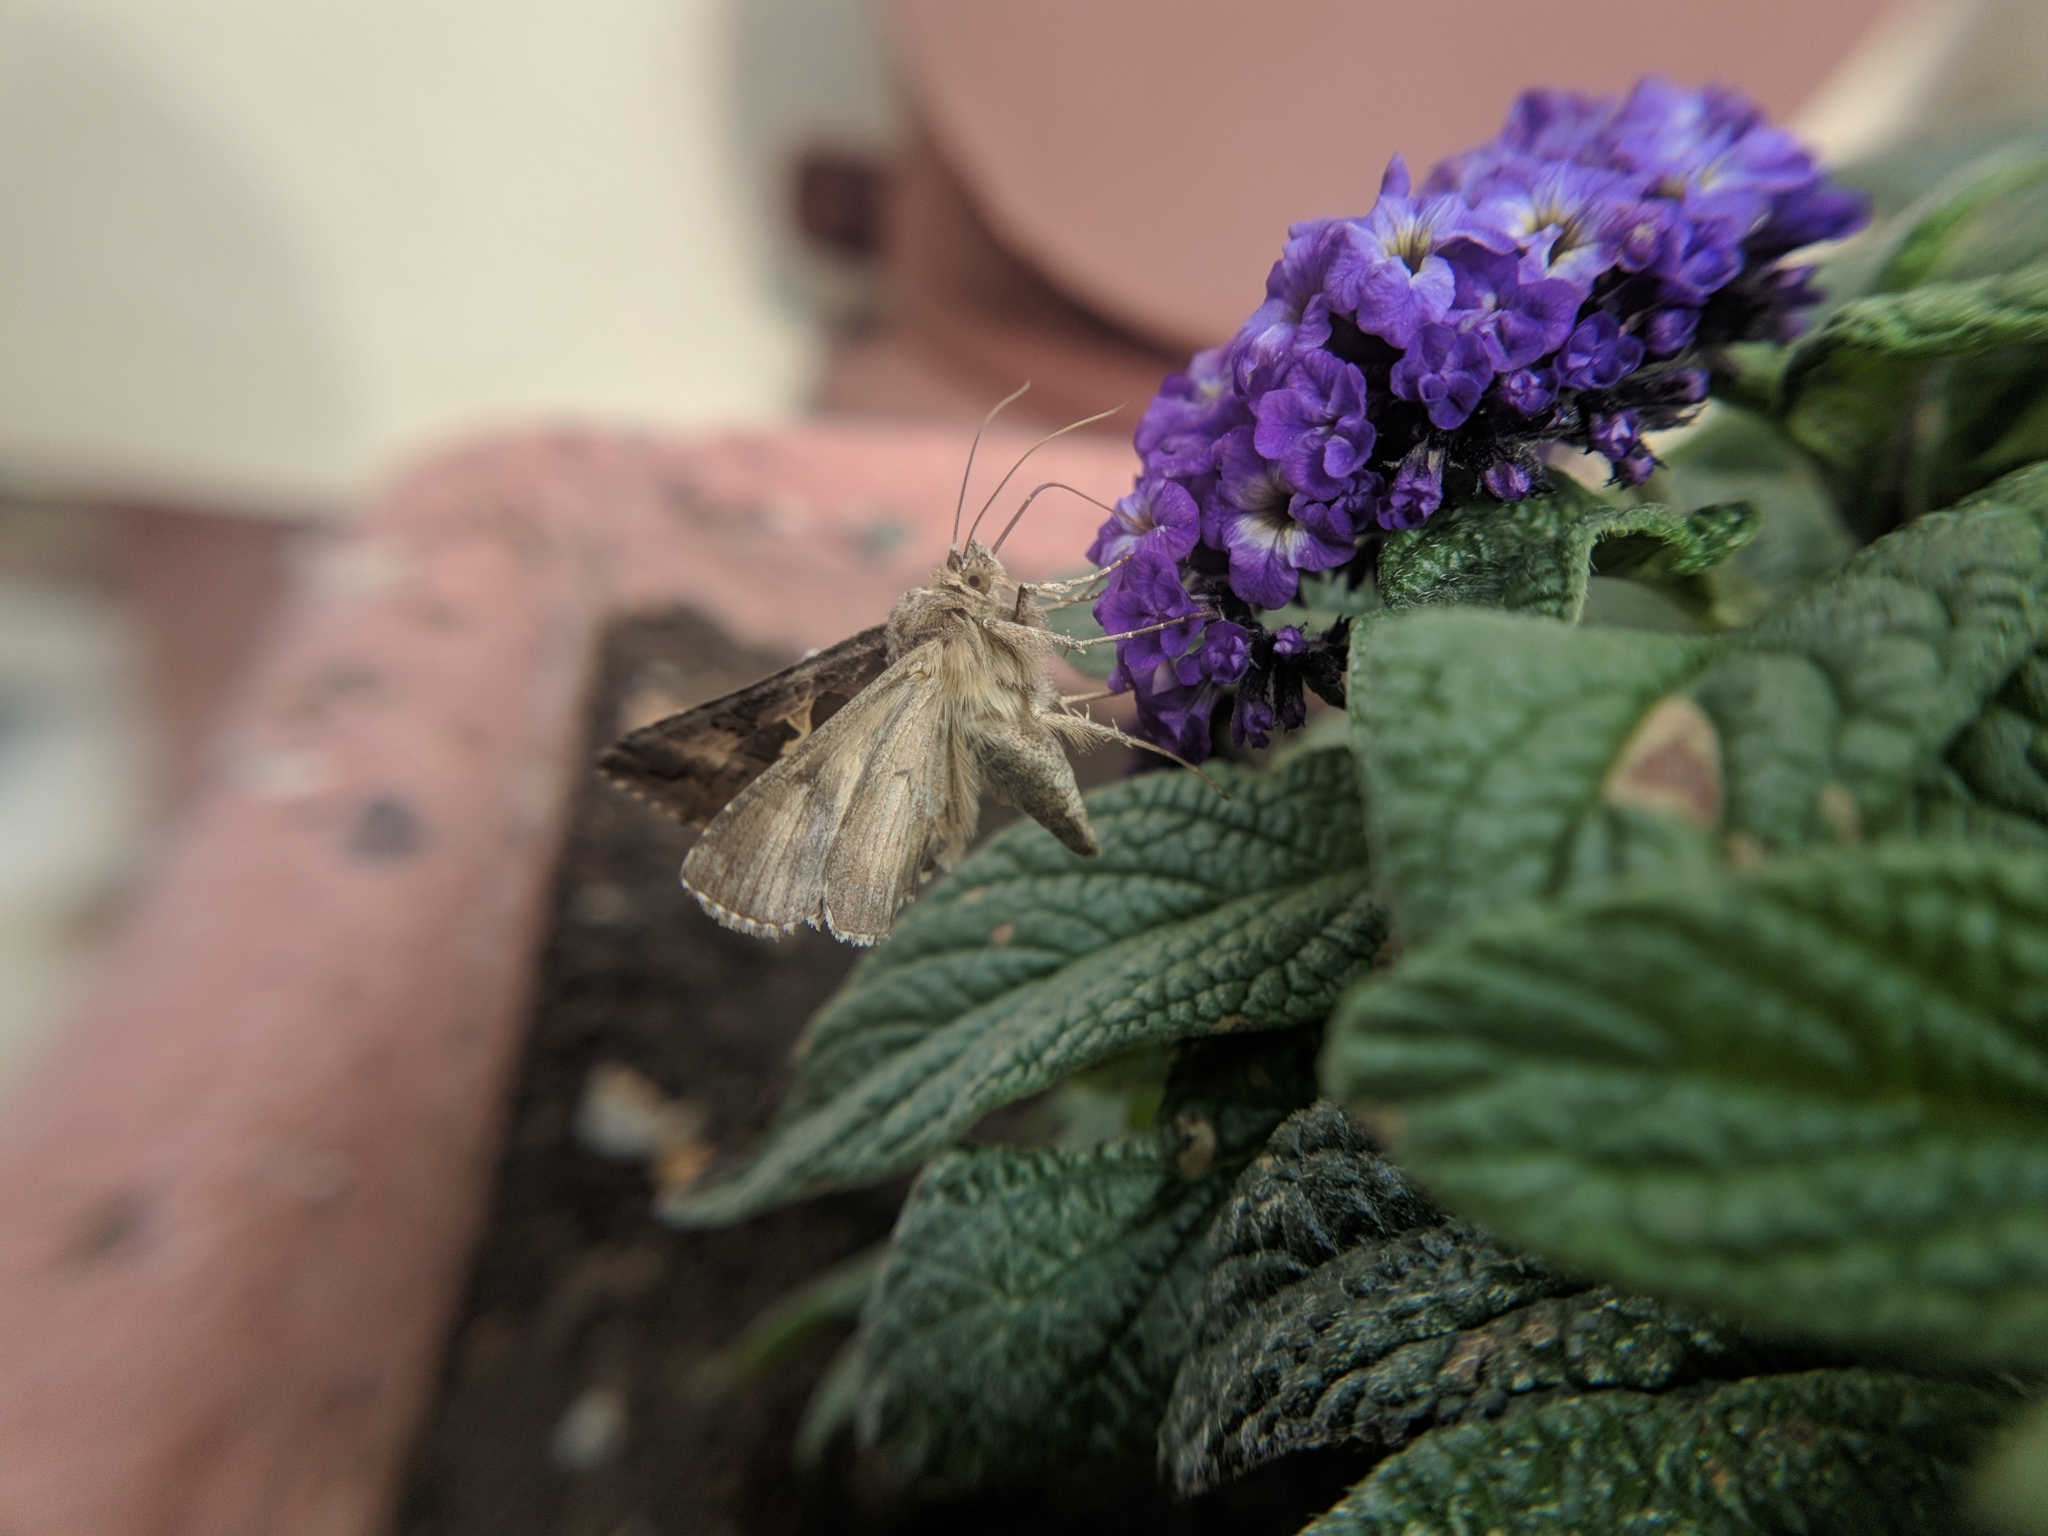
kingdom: Animalia
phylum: Arthropoda
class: Insecta
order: Lepidoptera
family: Noctuidae
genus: Autographa
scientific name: Autographa gamma
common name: Silver y
